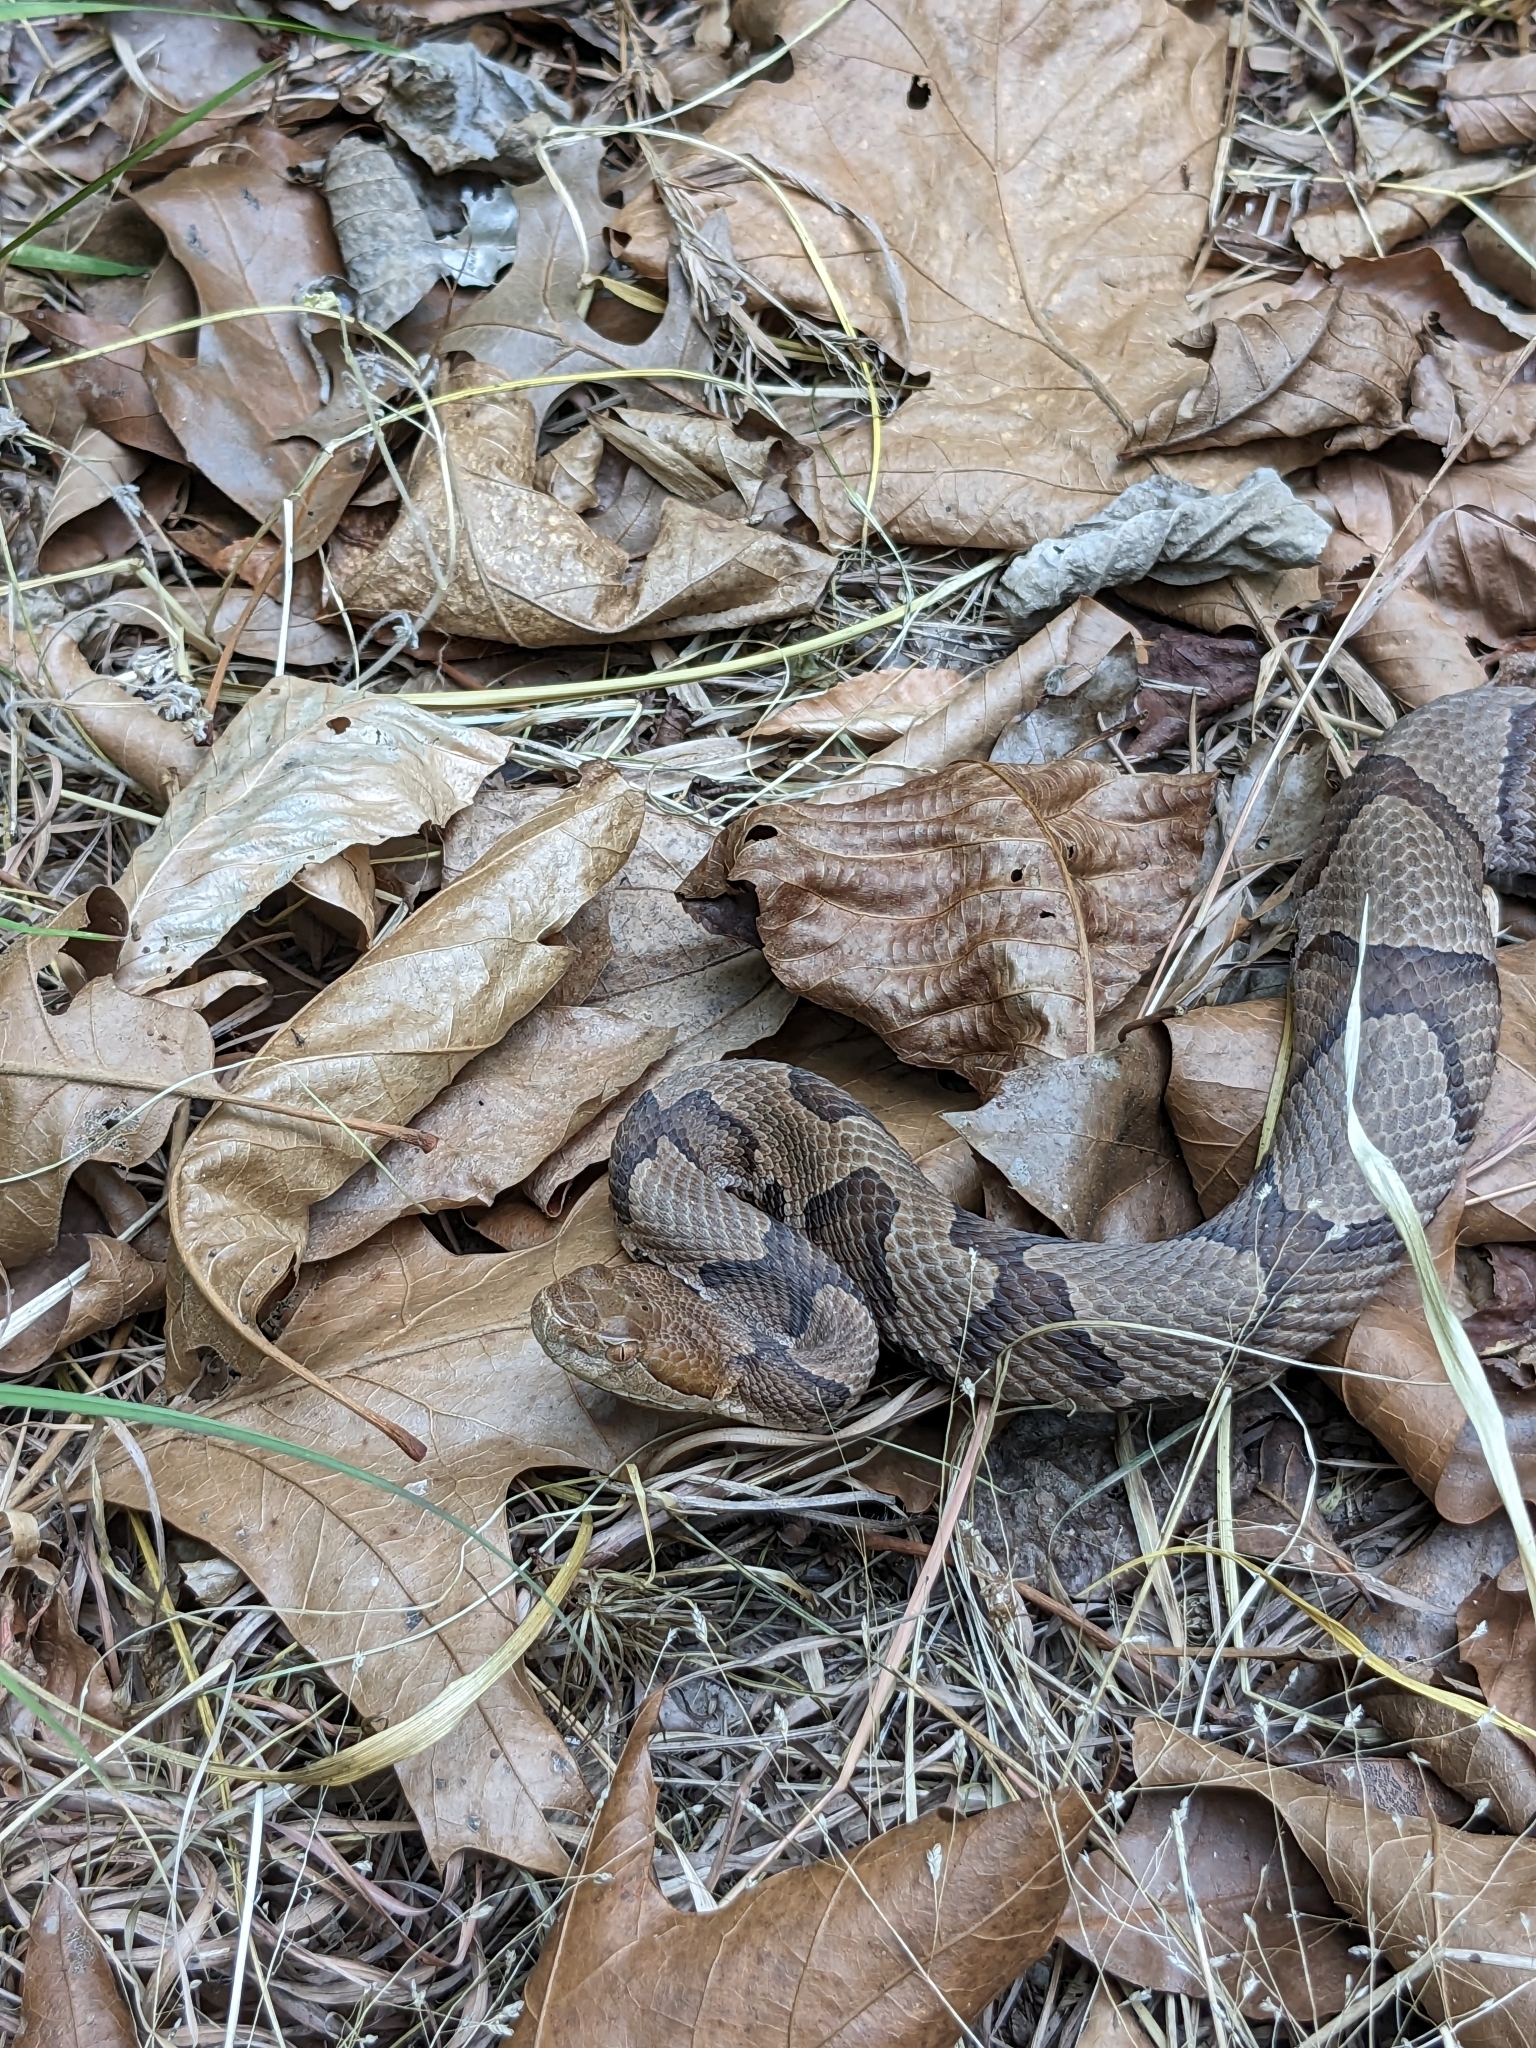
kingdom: Animalia
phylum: Chordata
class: Squamata
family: Viperidae
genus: Agkistrodon
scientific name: Agkistrodon contortrix
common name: Northern copperhead
